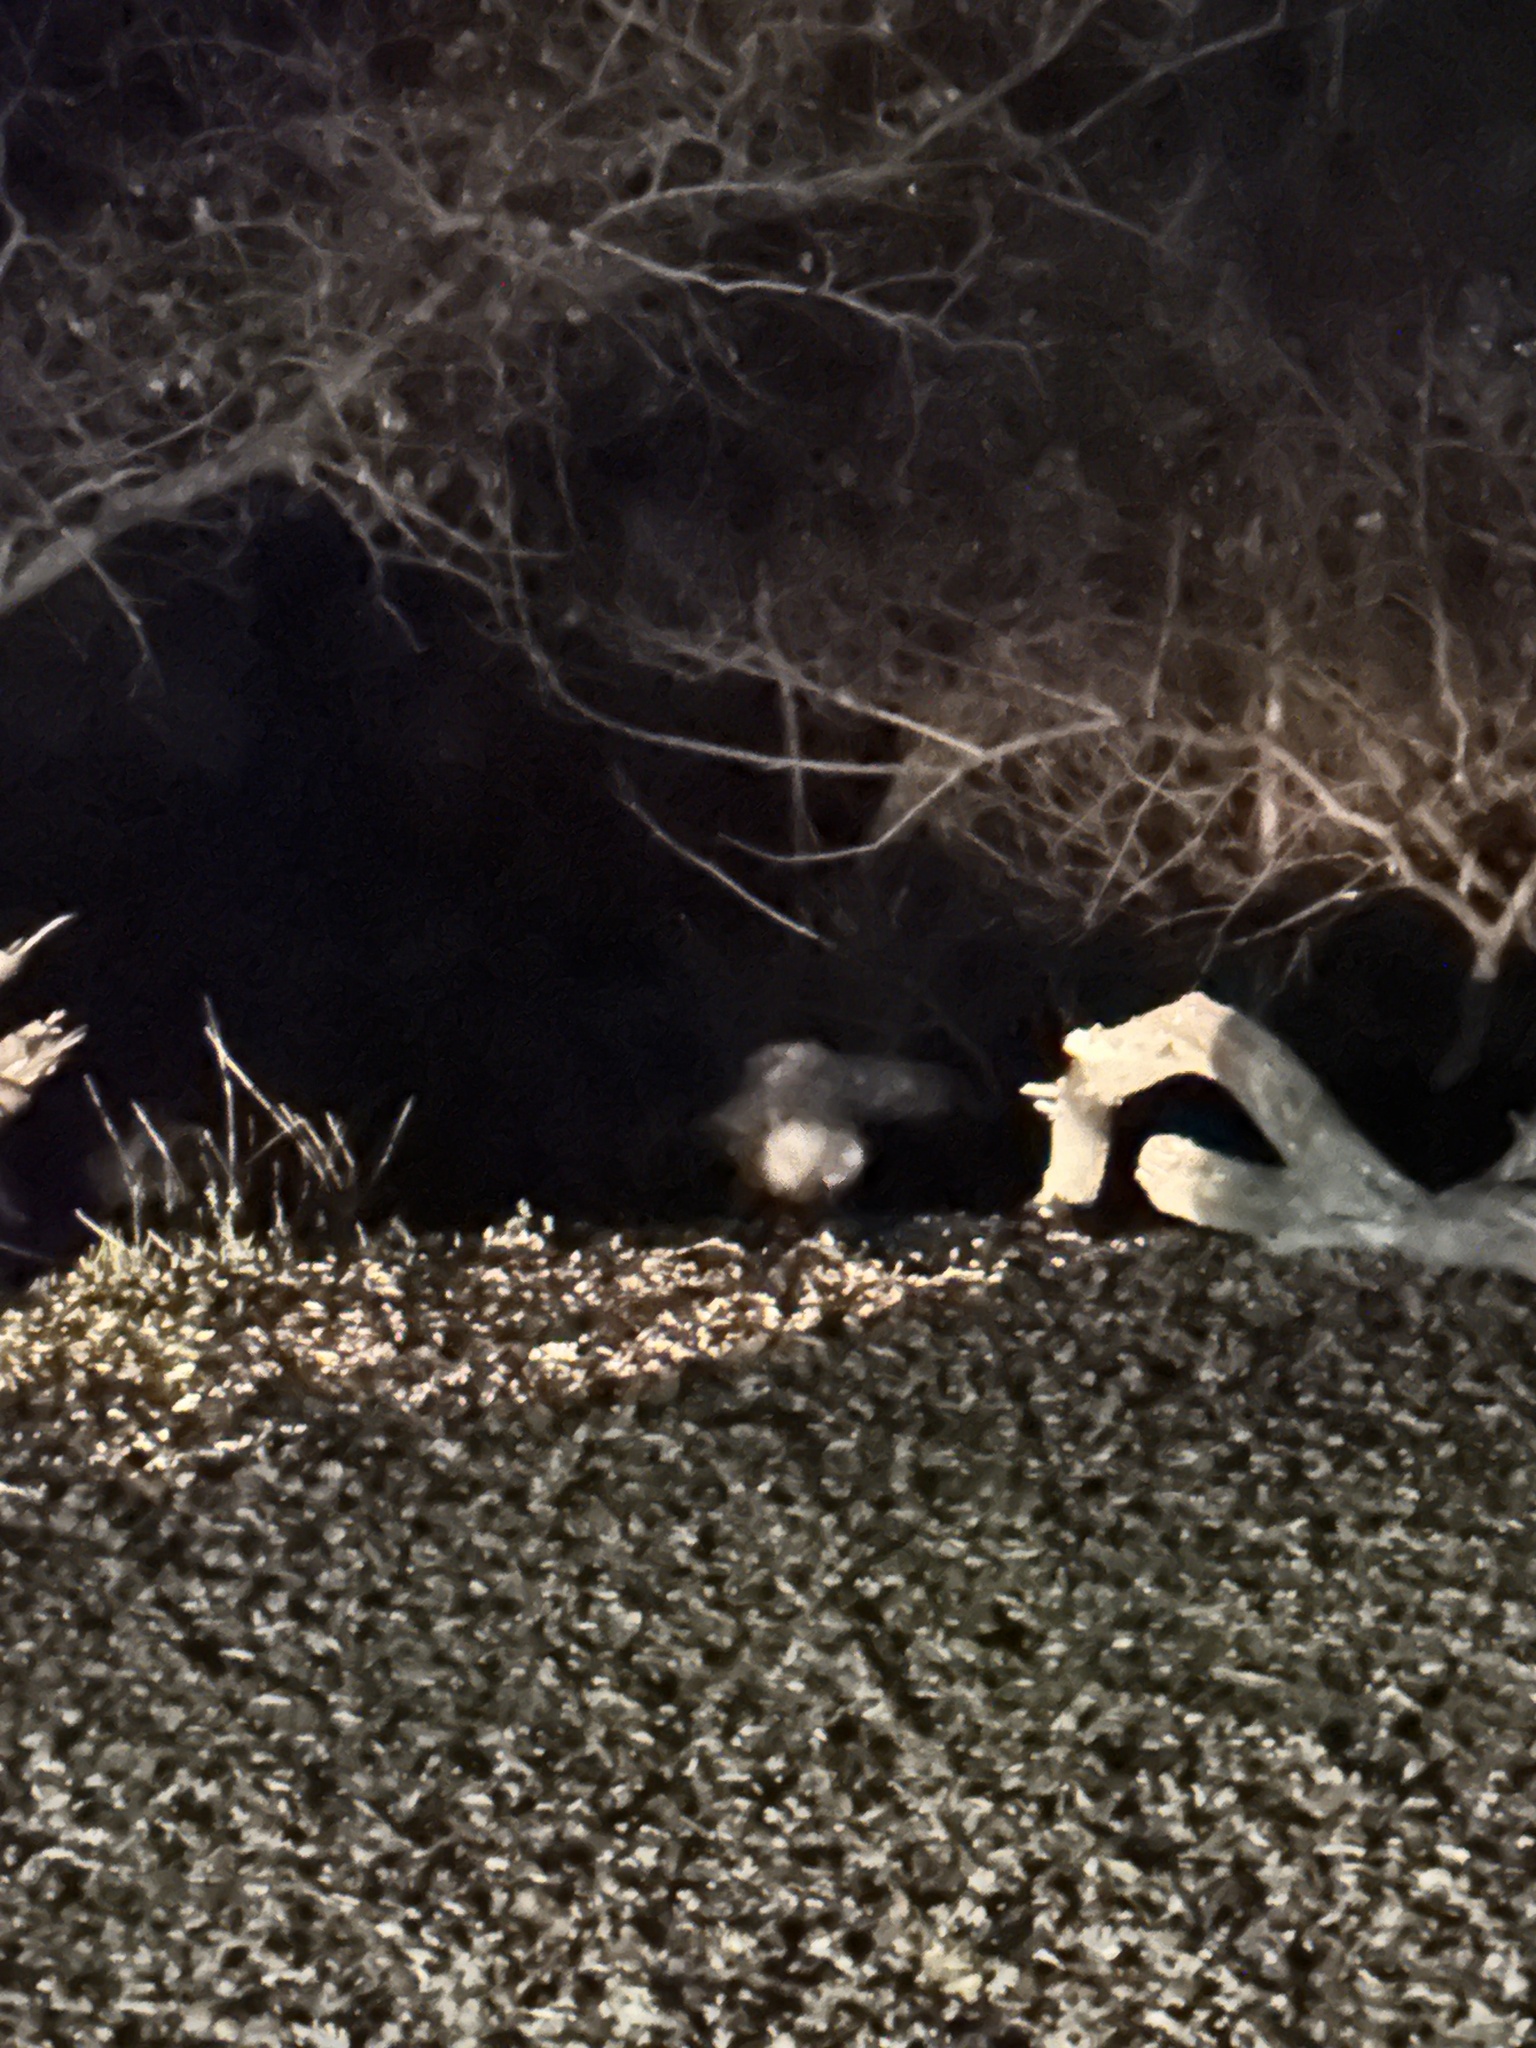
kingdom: Animalia
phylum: Chordata
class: Mammalia
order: Carnivora
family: Procyonidae
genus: Procyon
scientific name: Procyon lotor
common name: Raccoon
